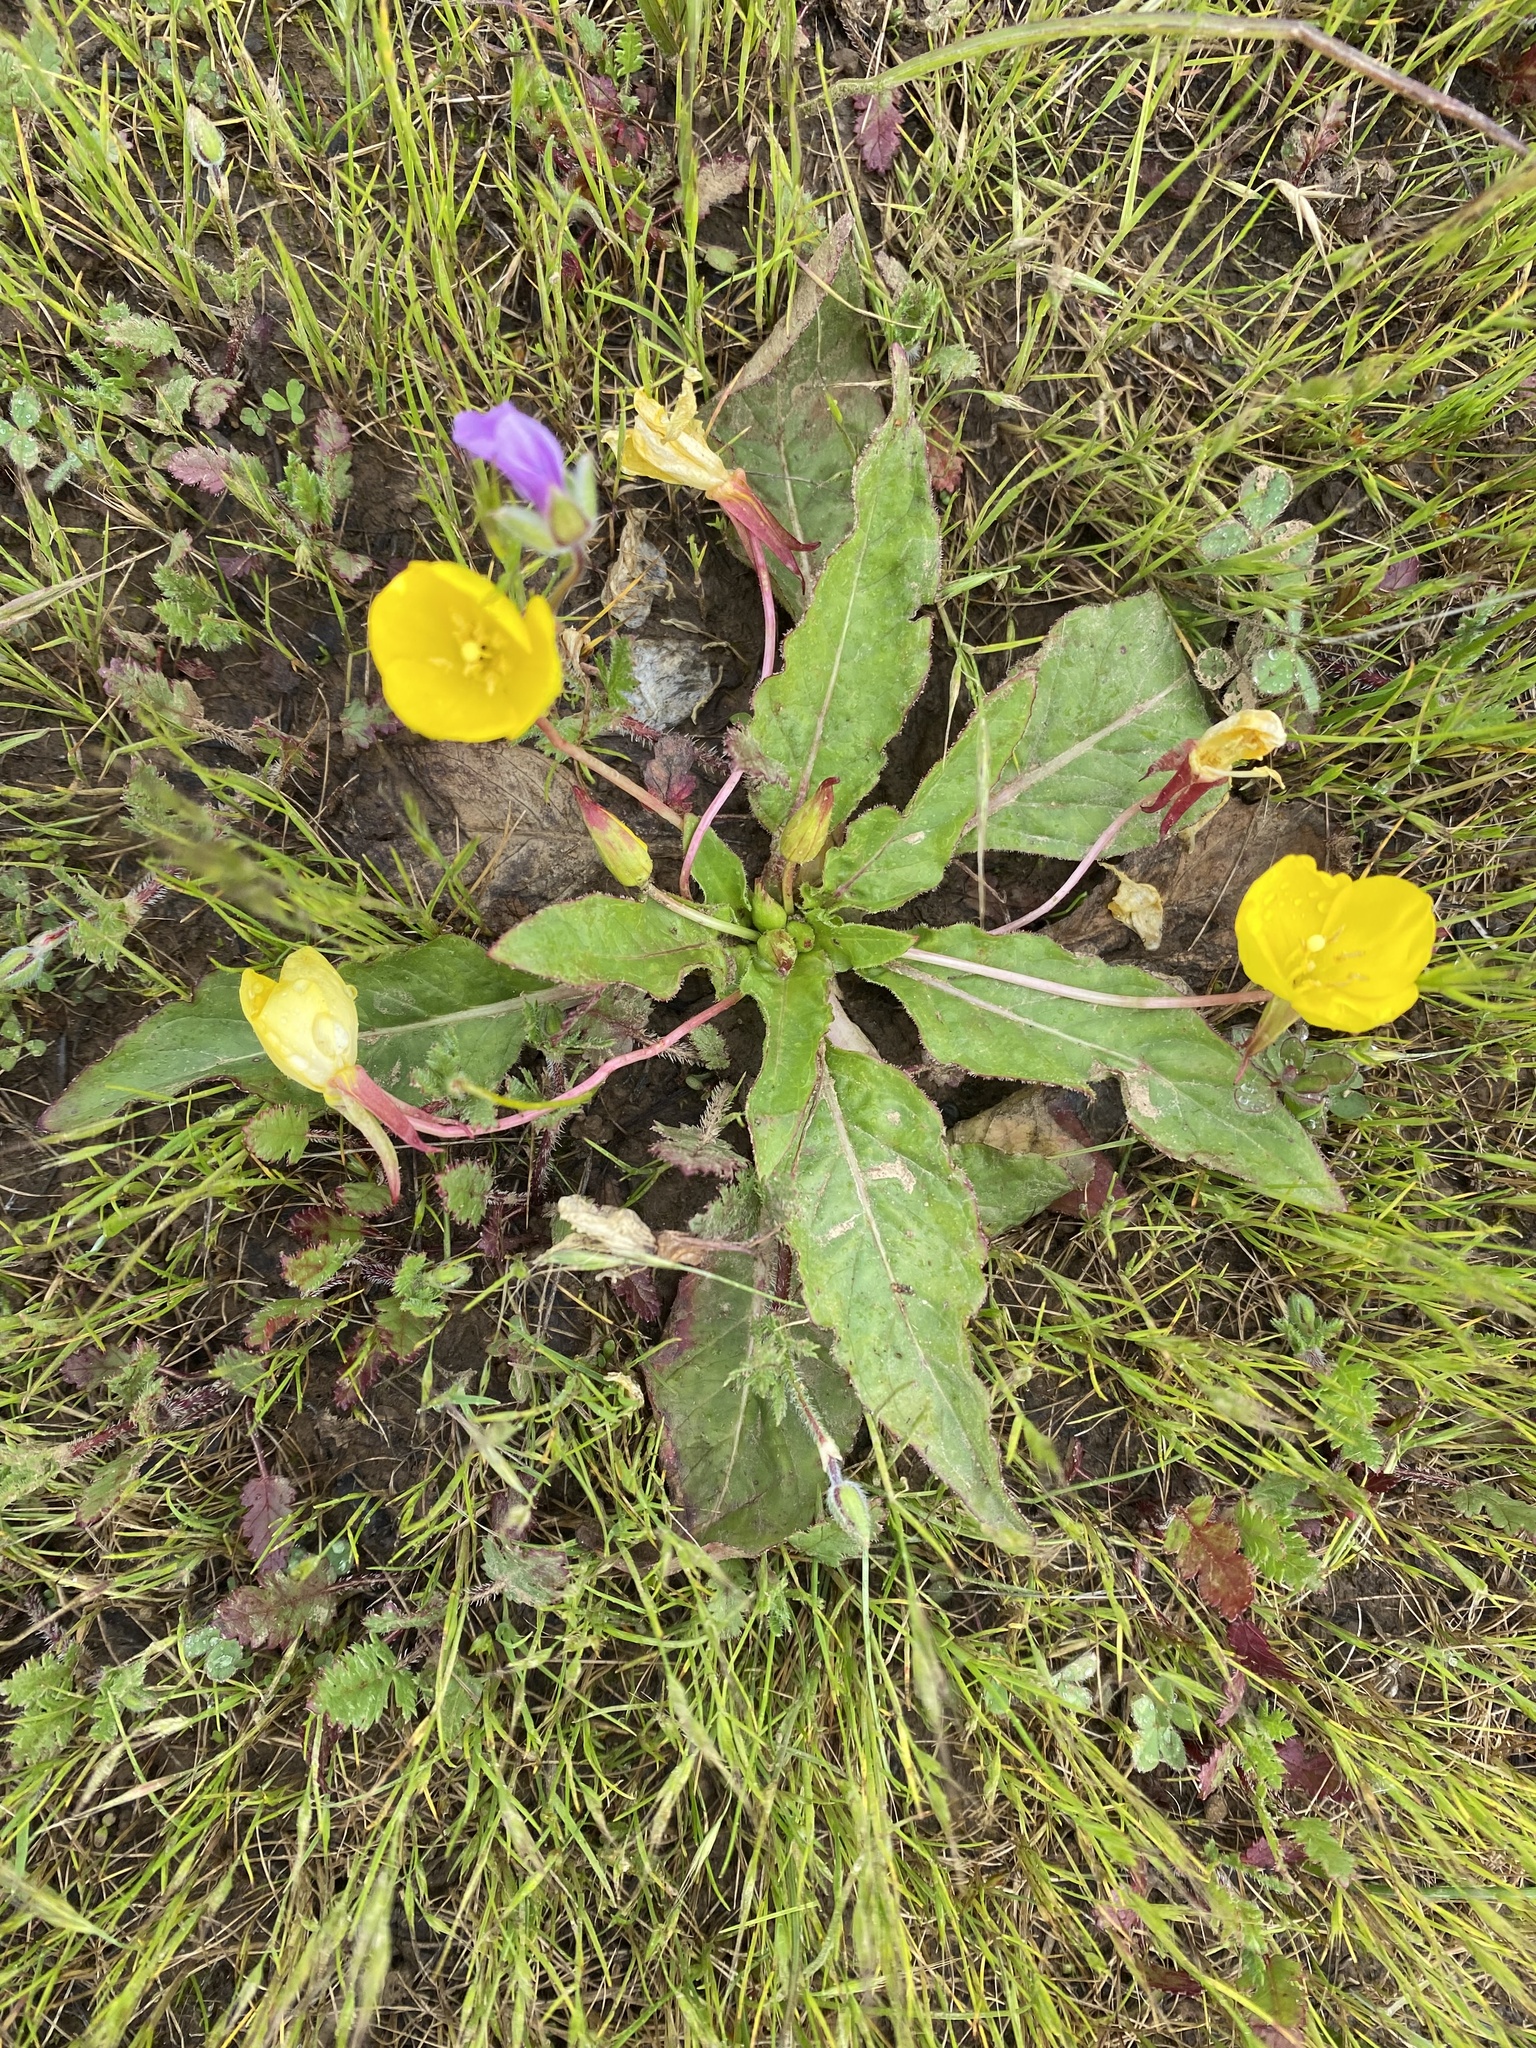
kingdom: Plantae
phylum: Tracheophyta
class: Magnoliopsida
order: Myrtales
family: Onagraceae
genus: Taraxia
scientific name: Taraxia ovata
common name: Goldeneggs
